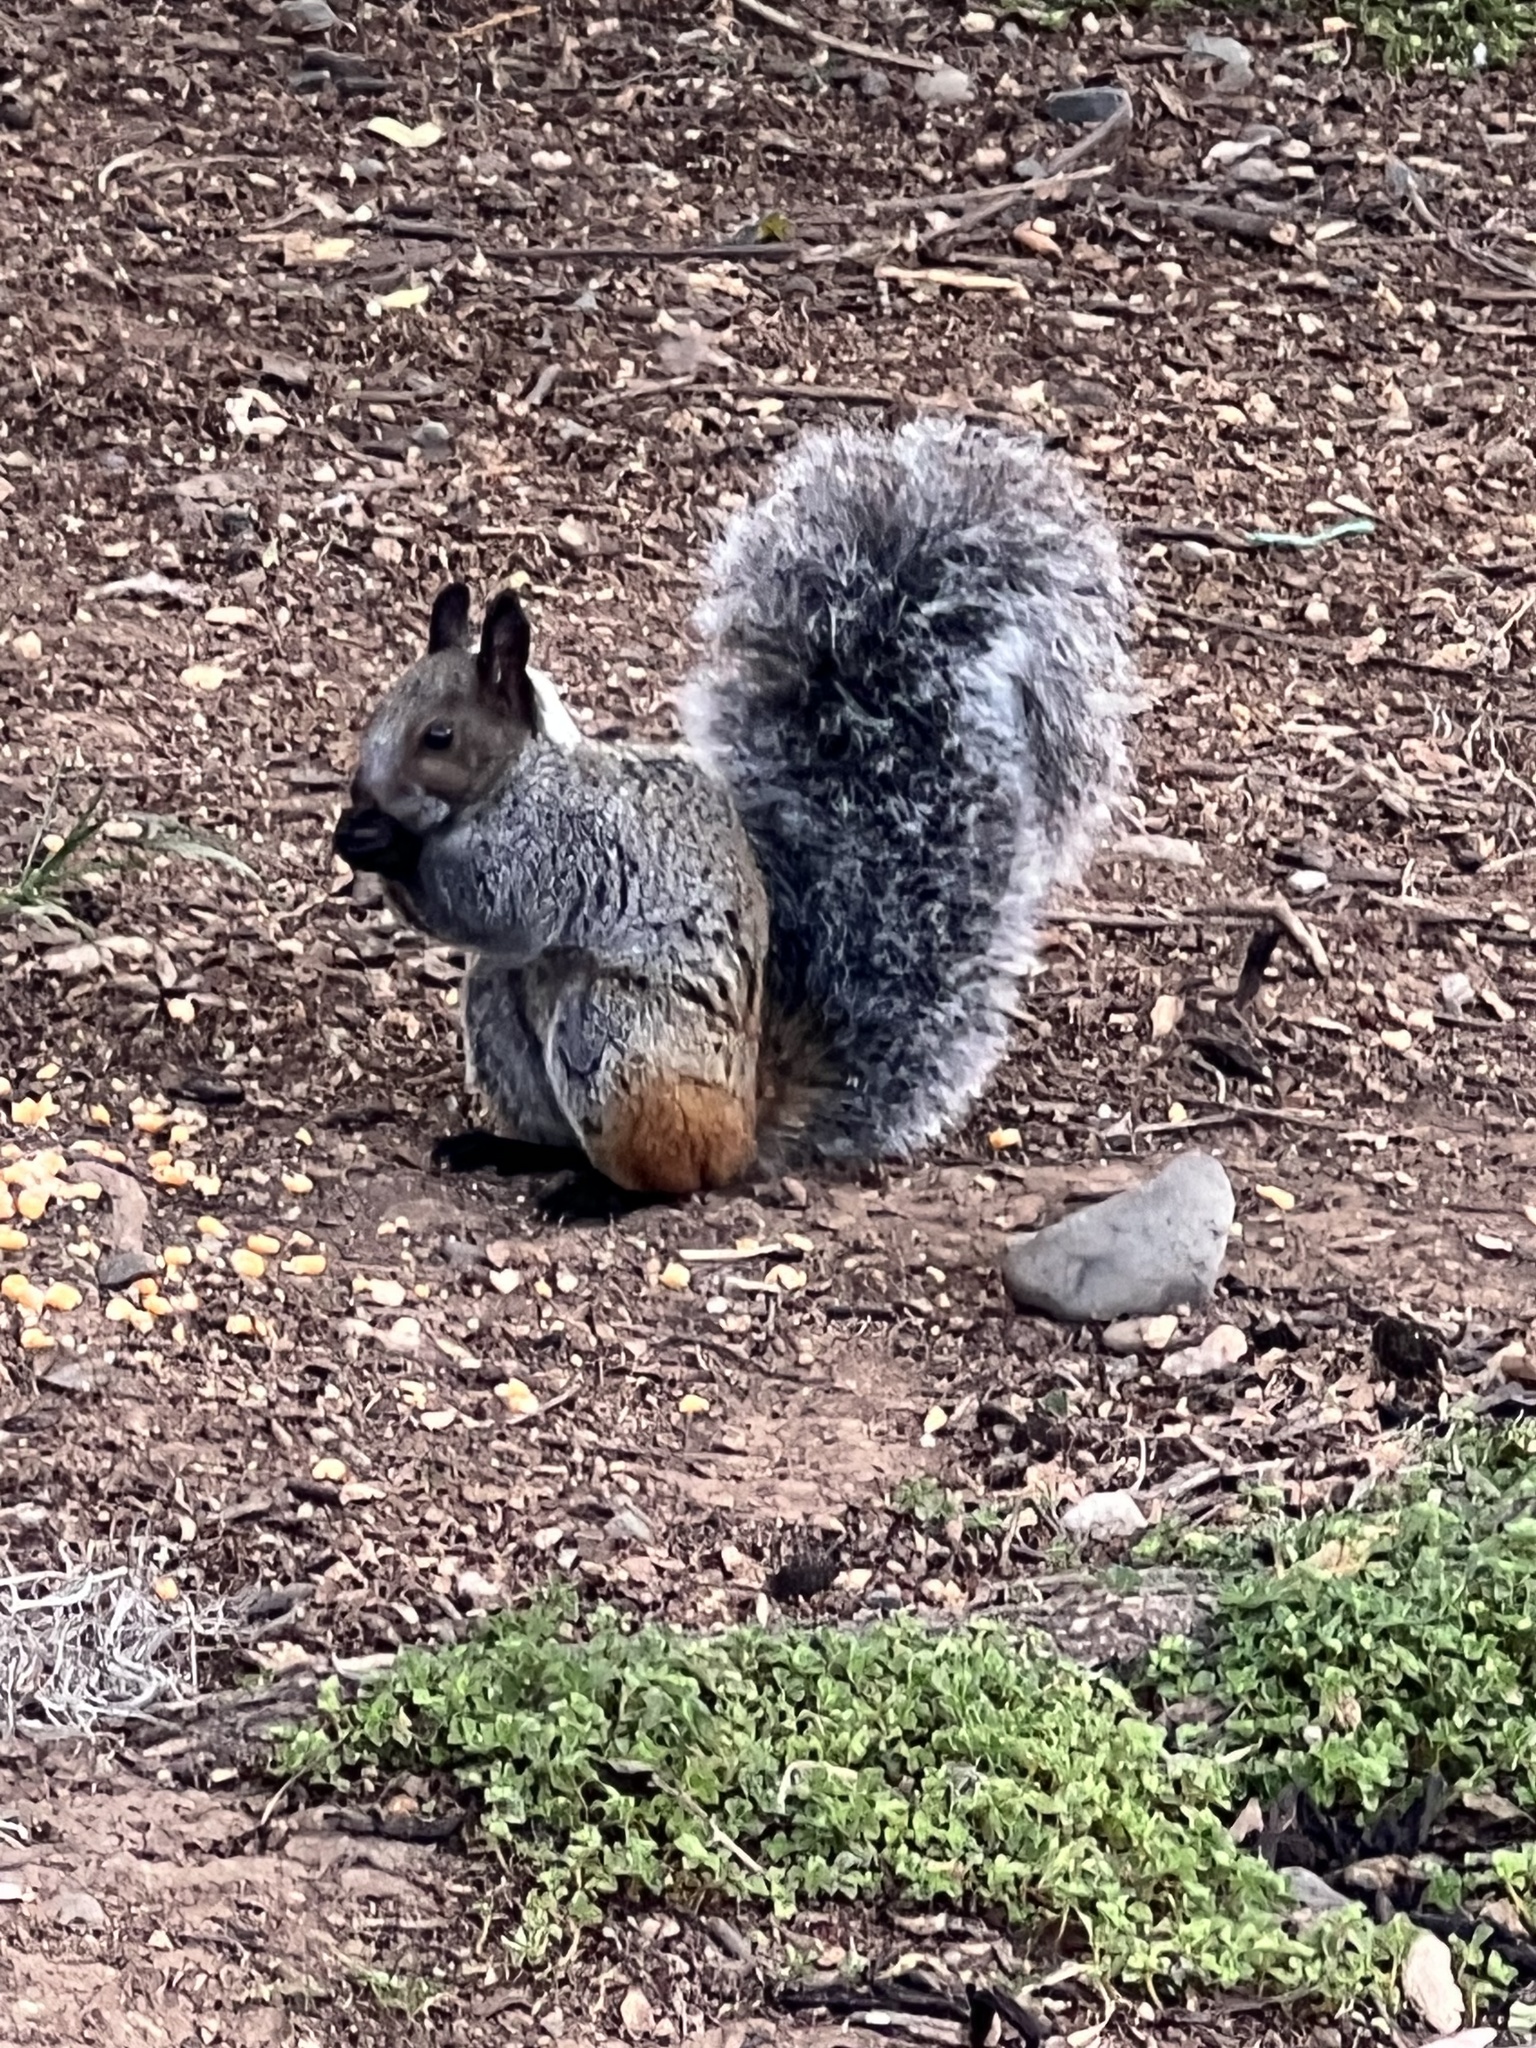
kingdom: Animalia
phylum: Chordata
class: Mammalia
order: Rodentia
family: Sciuridae
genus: Sciurus
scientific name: Sciurus stramineus
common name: Guayaquil squirrel
